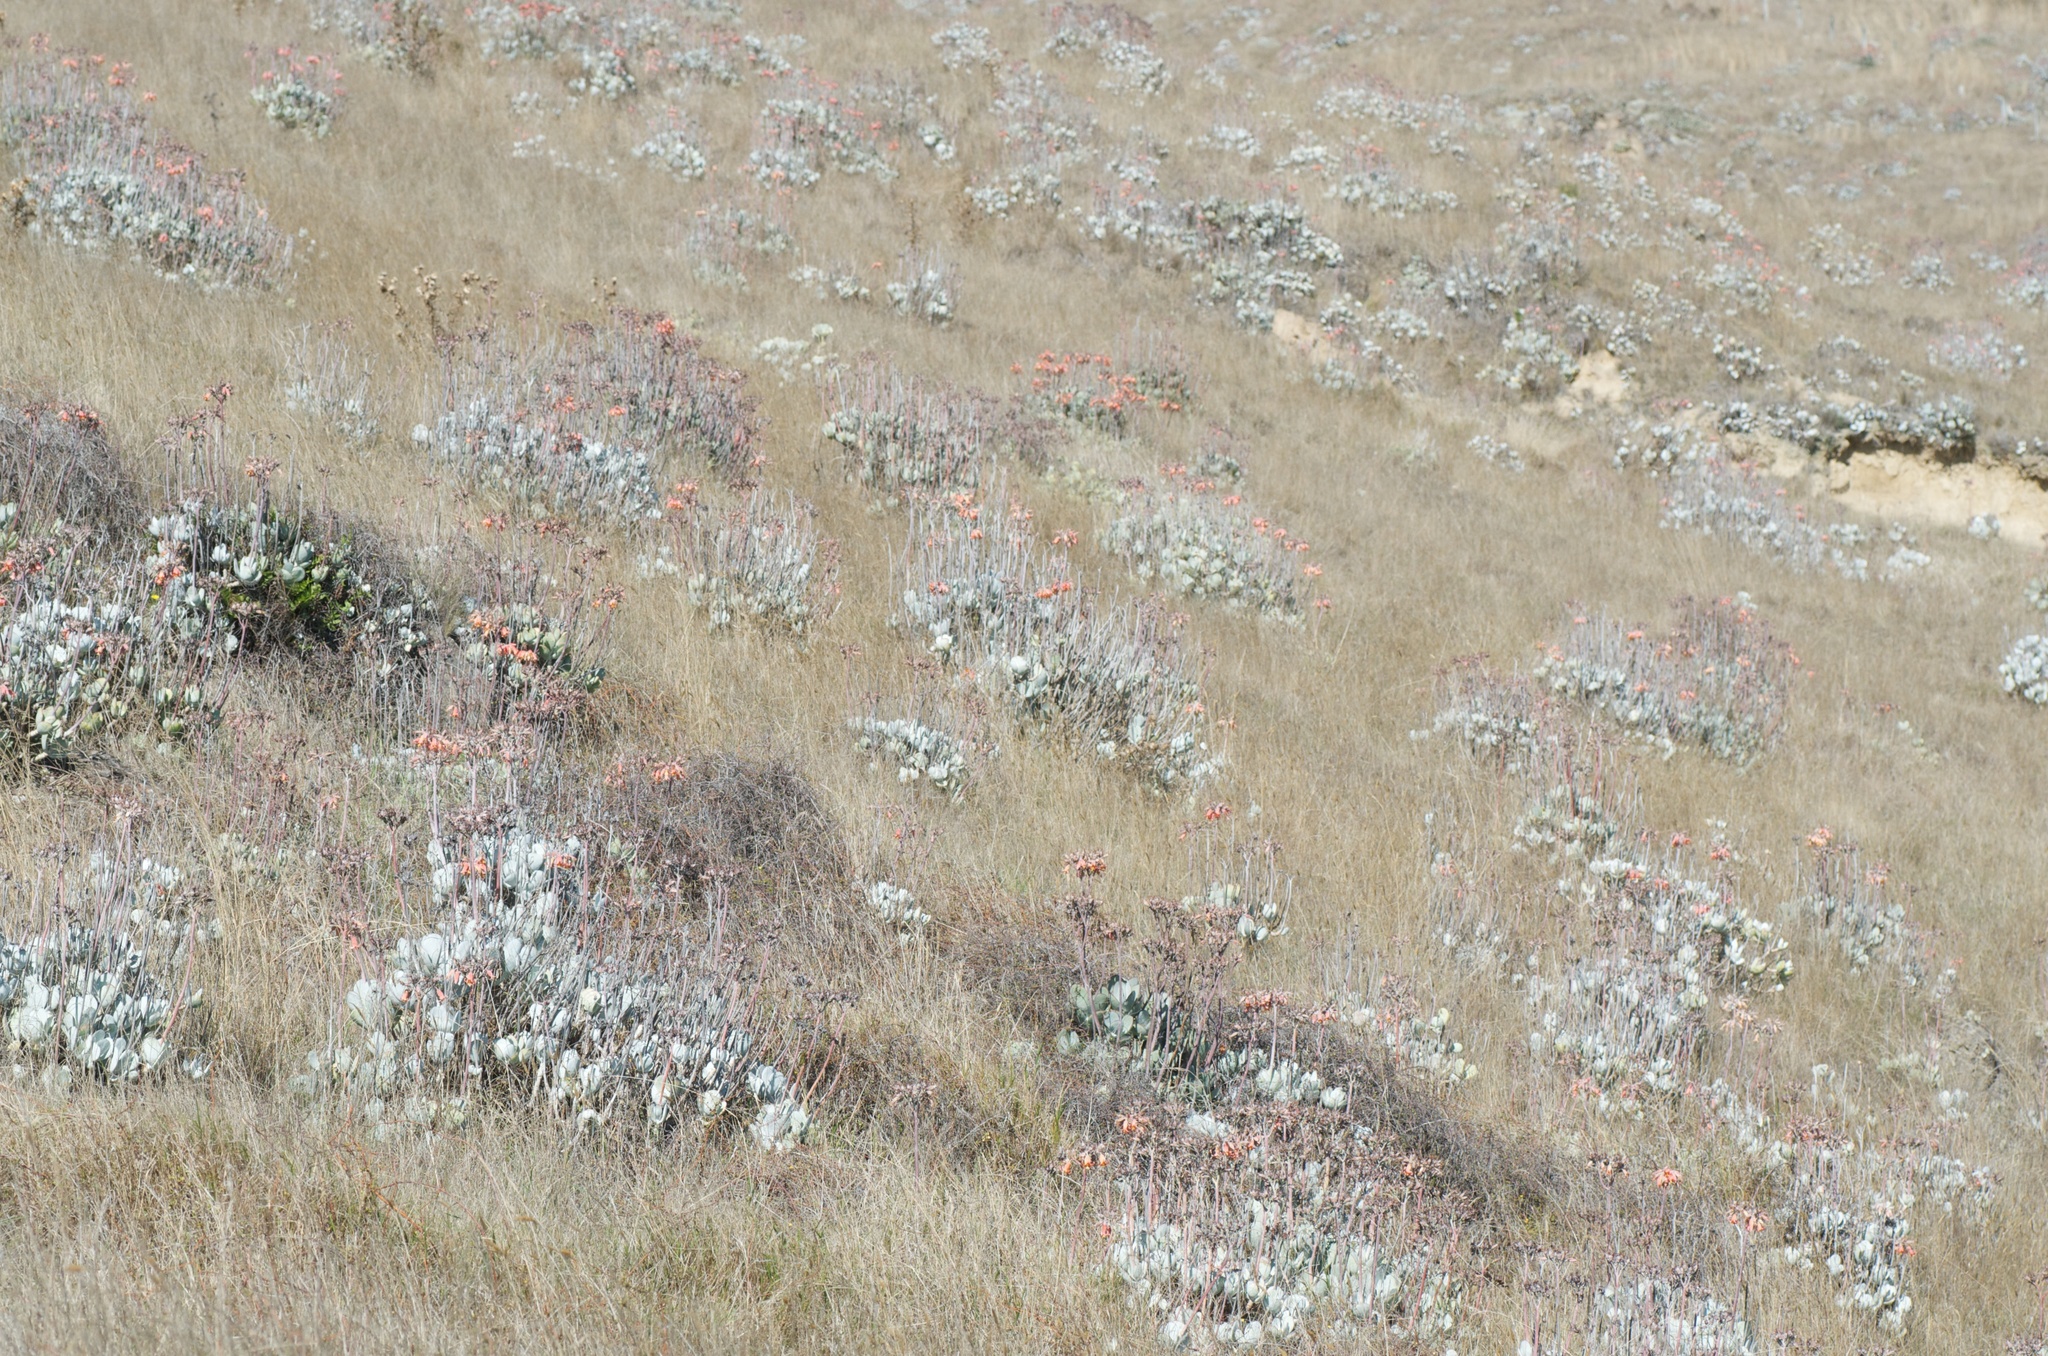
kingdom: Plantae
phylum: Tracheophyta
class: Magnoliopsida
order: Saxifragales
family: Crassulaceae
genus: Cotyledon
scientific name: Cotyledon orbiculata
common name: Pig's ear
